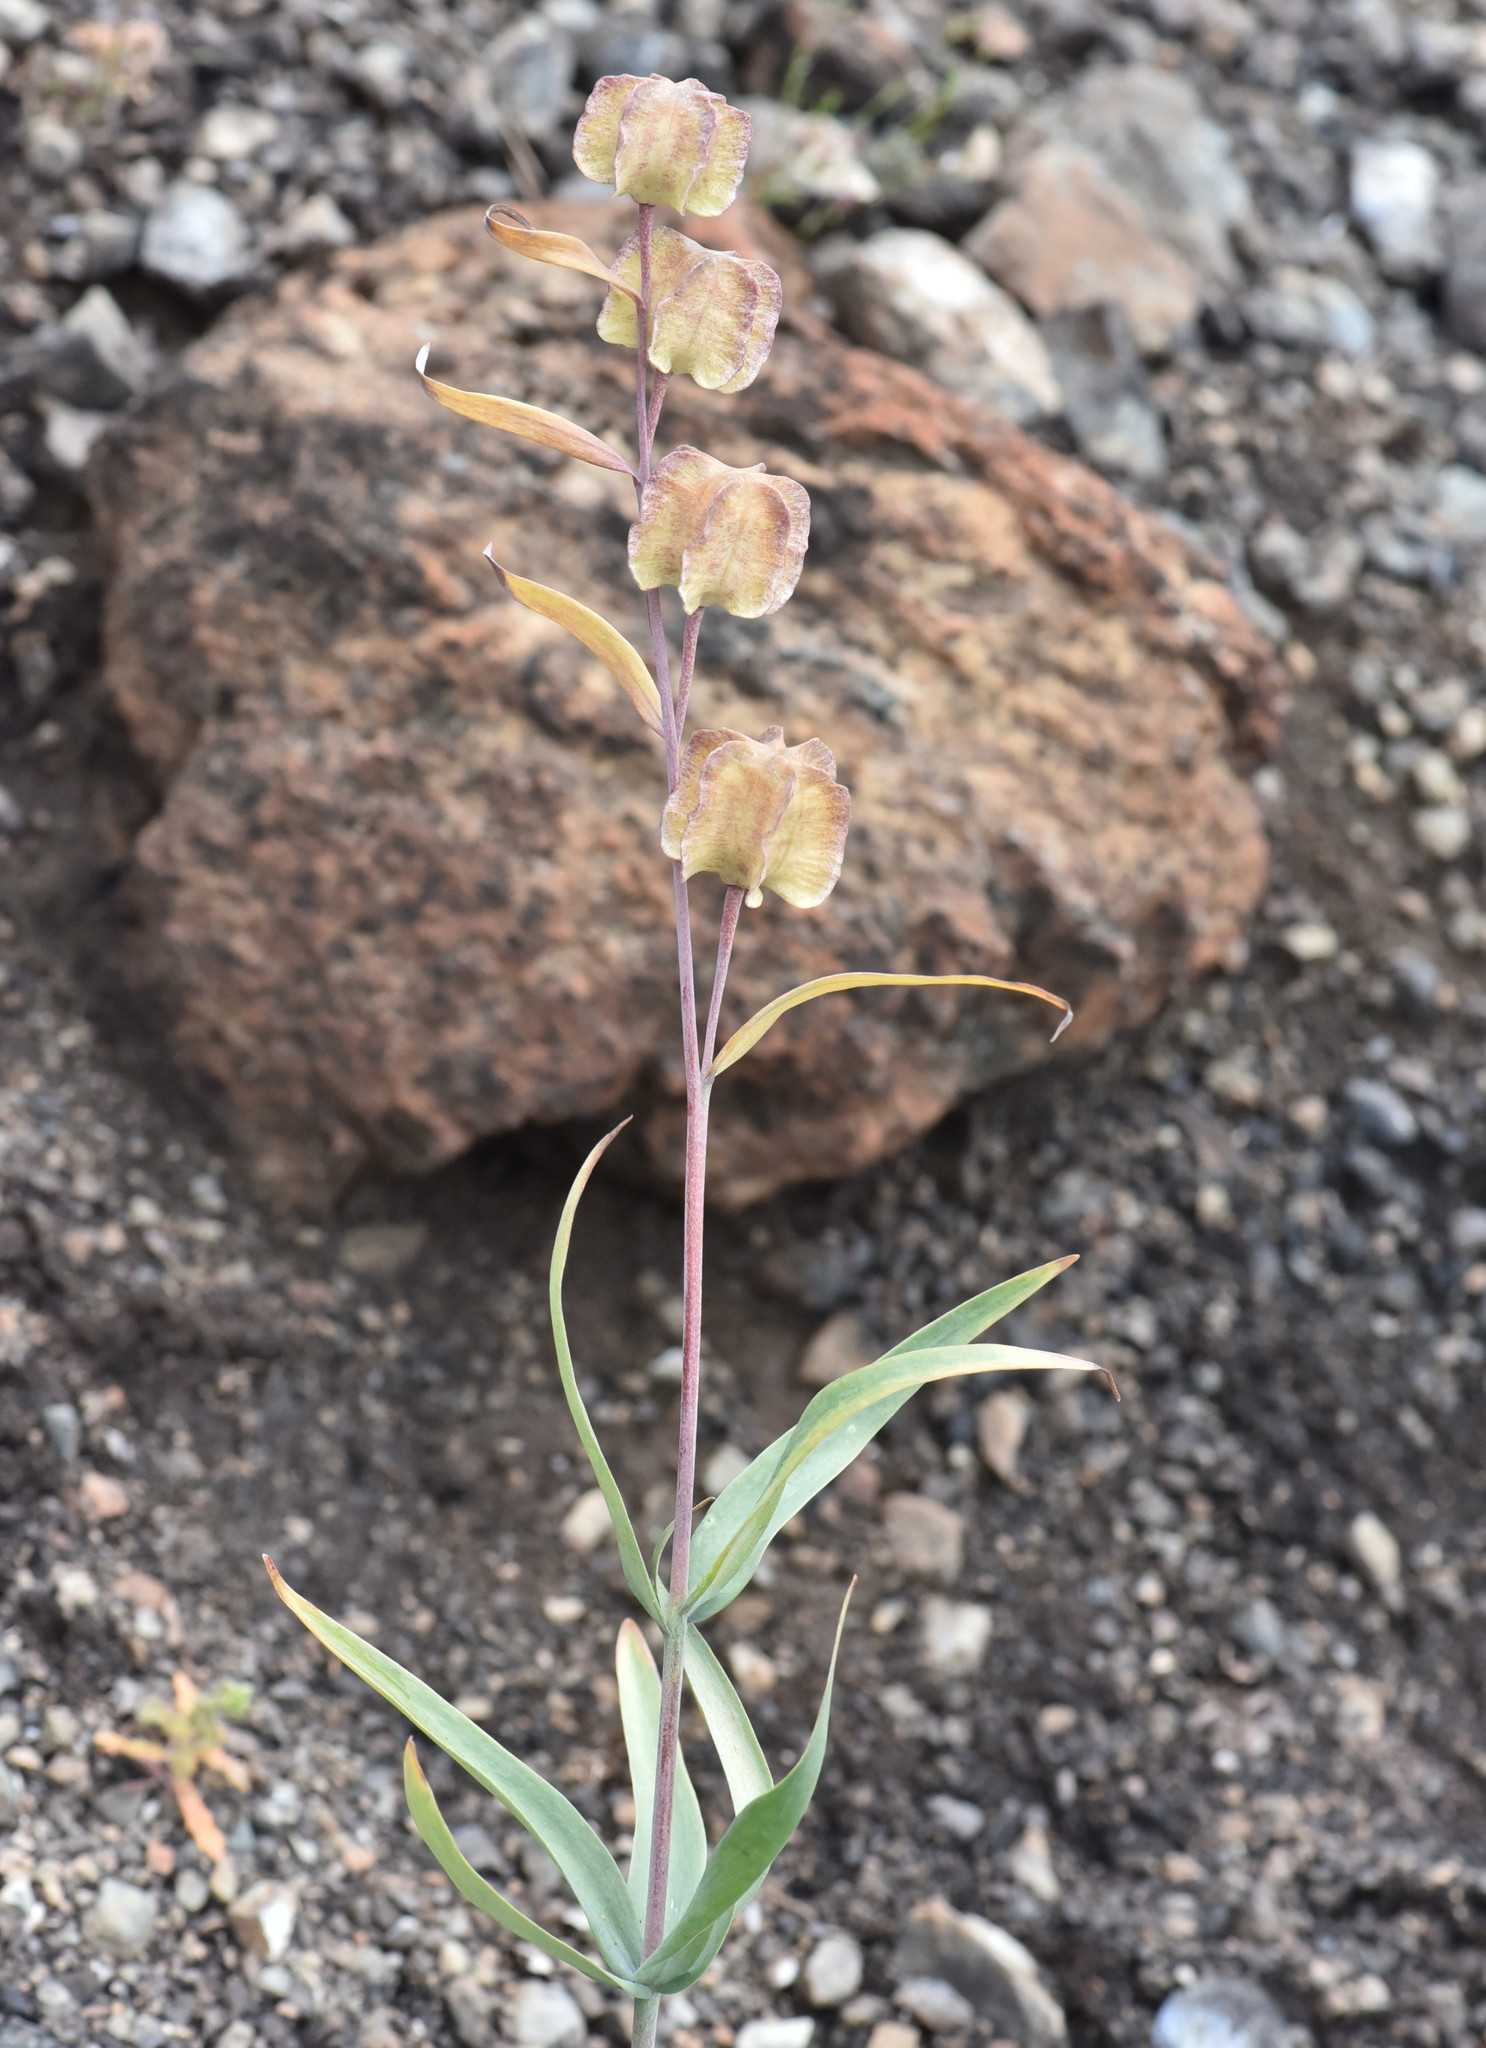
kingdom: Plantae
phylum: Tracheophyta
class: Liliopsida
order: Liliales
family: Liliaceae
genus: Fritillaria
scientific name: Fritillaria affinis
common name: Ojai fritillary
